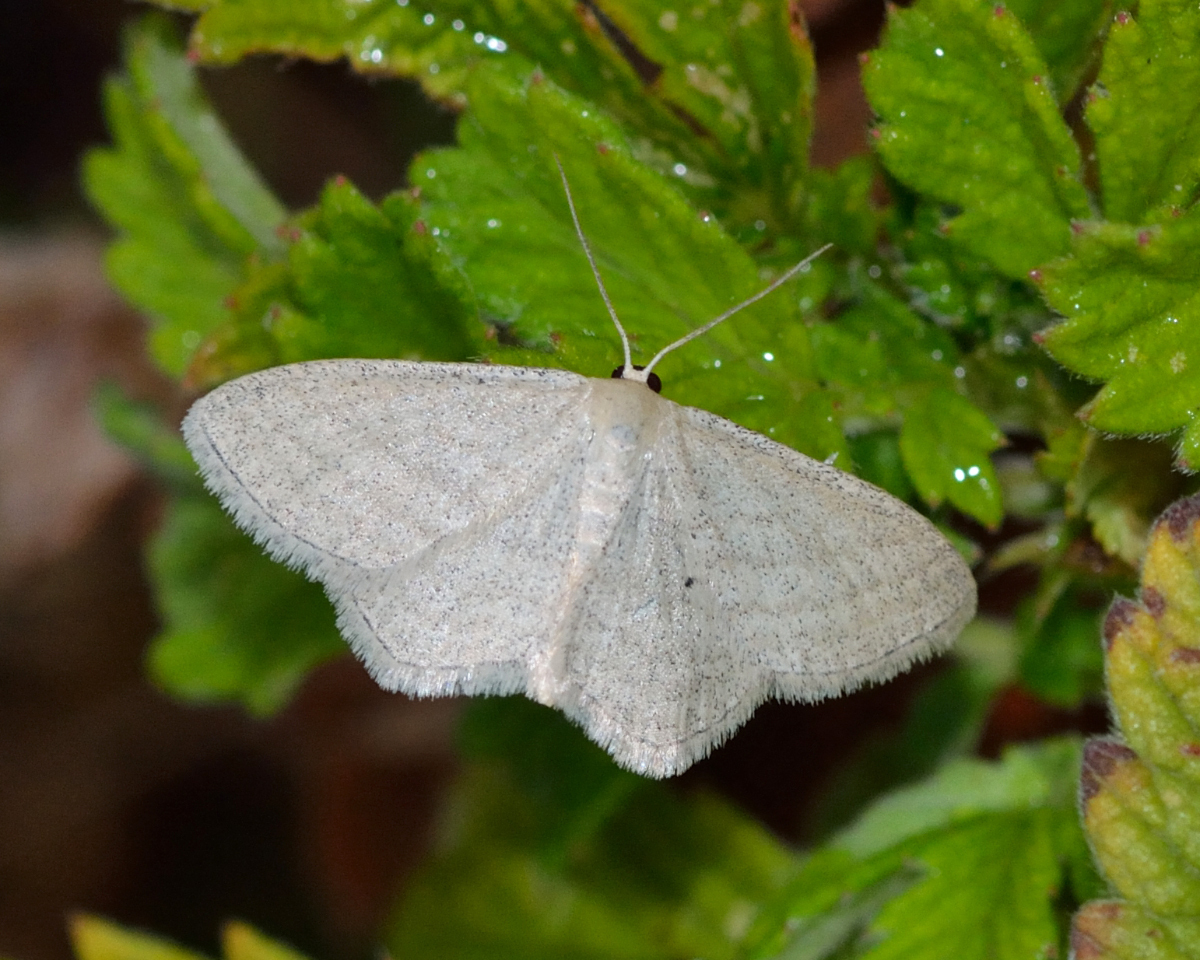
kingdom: Animalia
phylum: Arthropoda
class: Insecta
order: Lepidoptera
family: Geometridae
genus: Scopula
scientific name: Scopula virgulata
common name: Streaked wave
